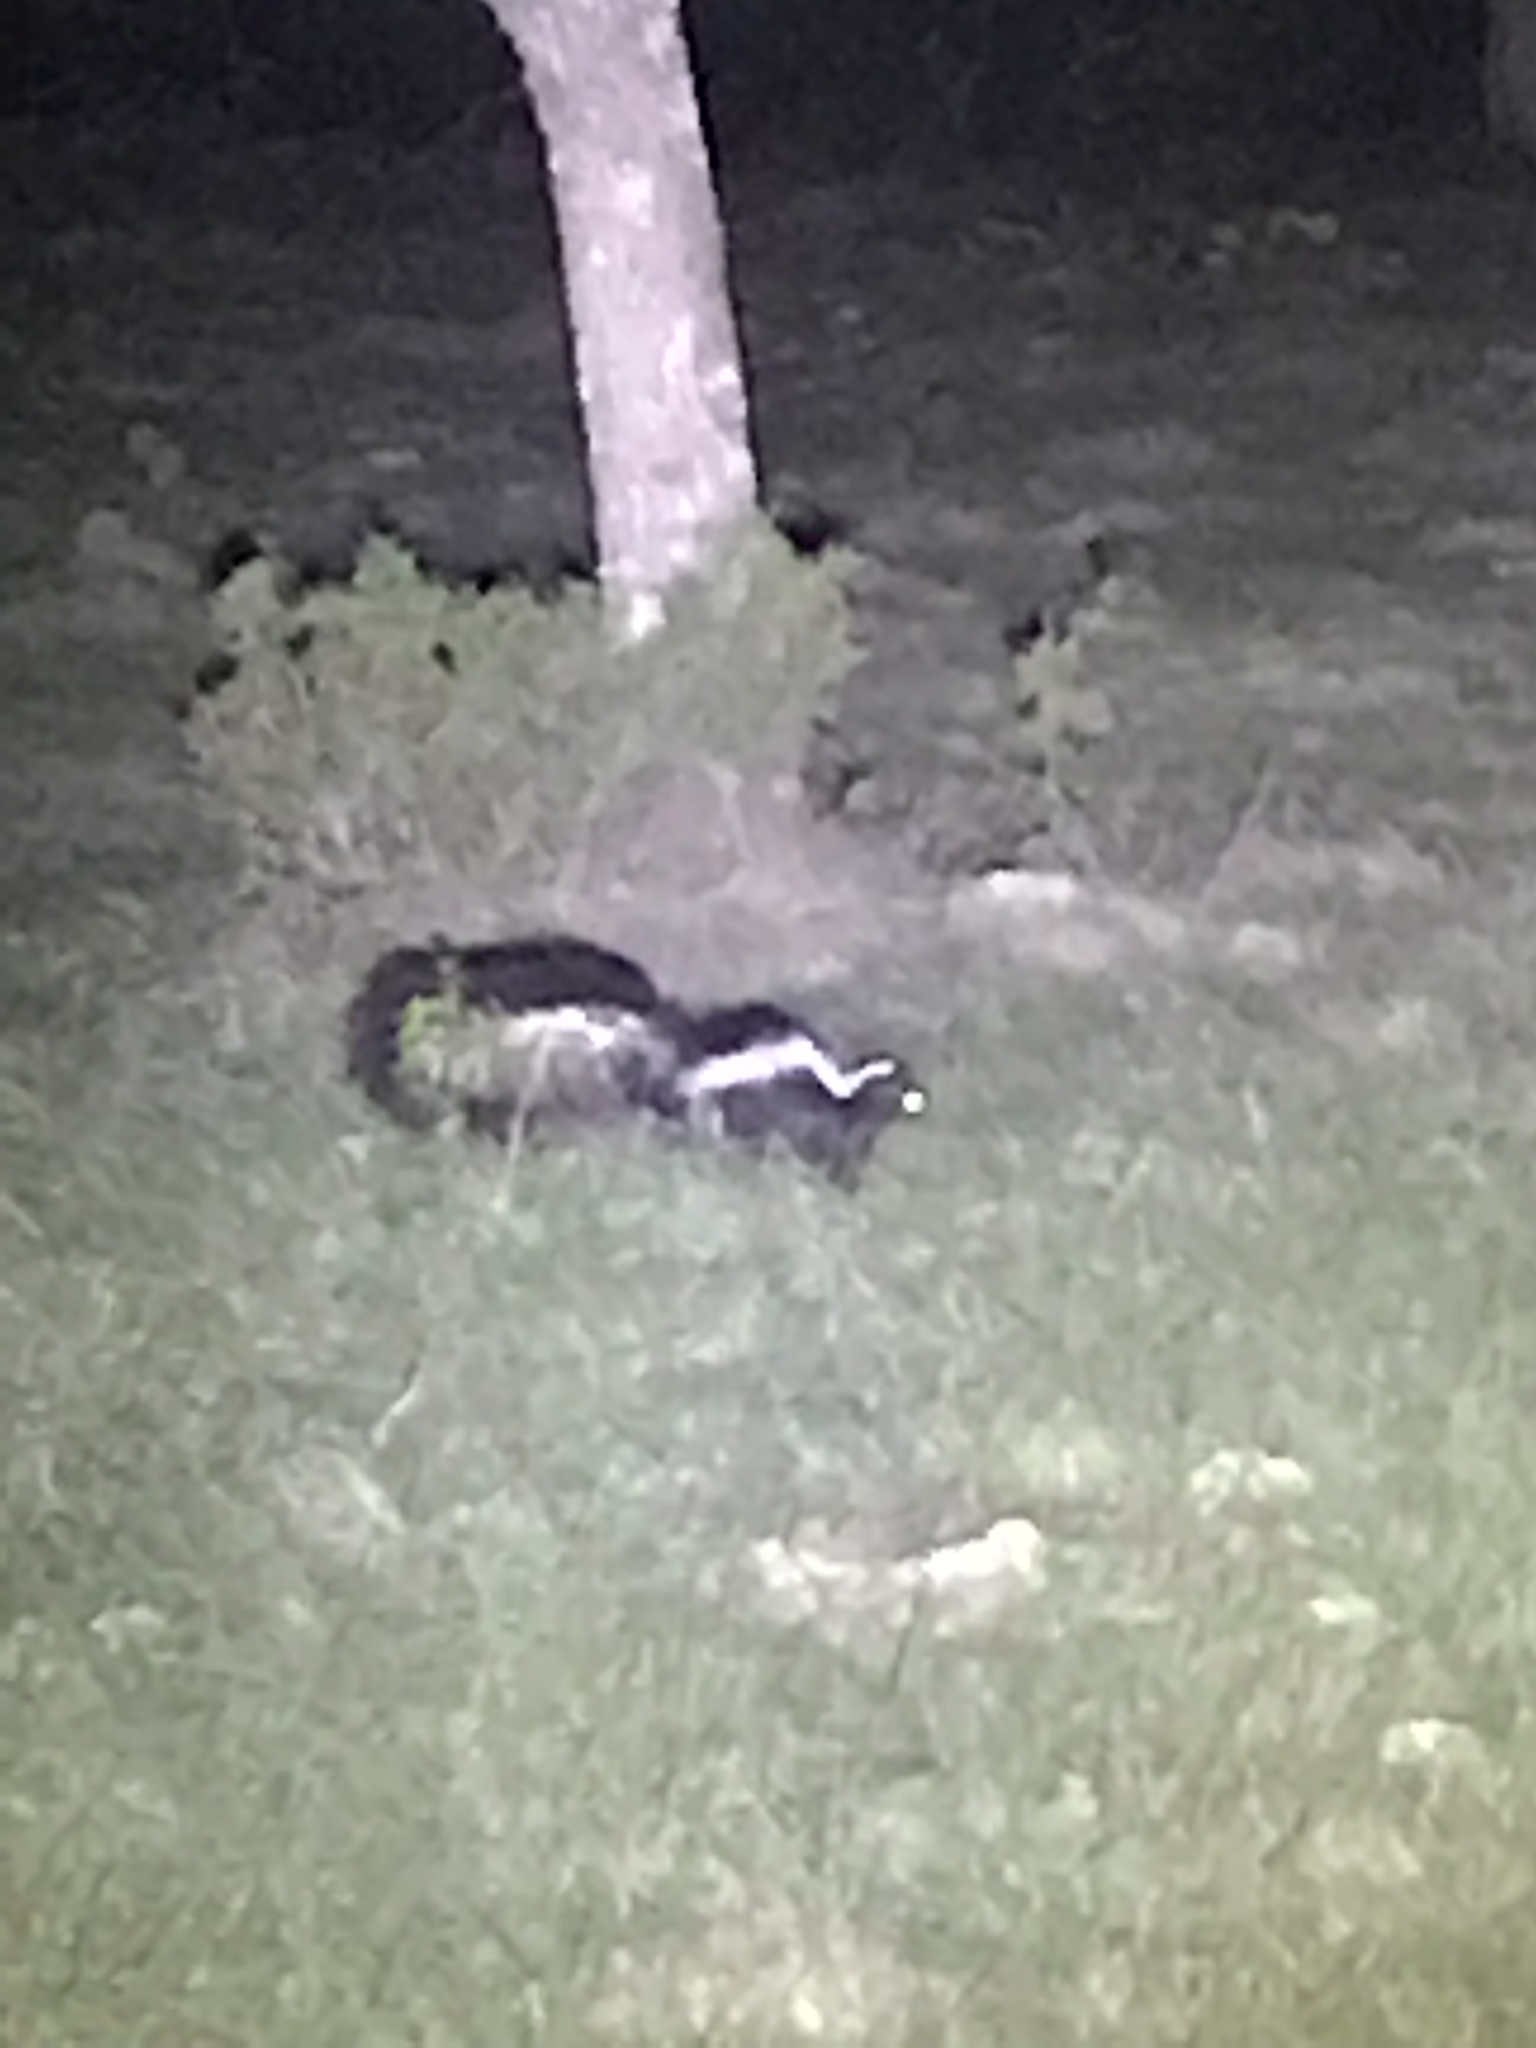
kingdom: Animalia
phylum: Chordata
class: Mammalia
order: Carnivora
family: Mephitidae
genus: Mephitis
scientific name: Mephitis mephitis
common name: Striped skunk
